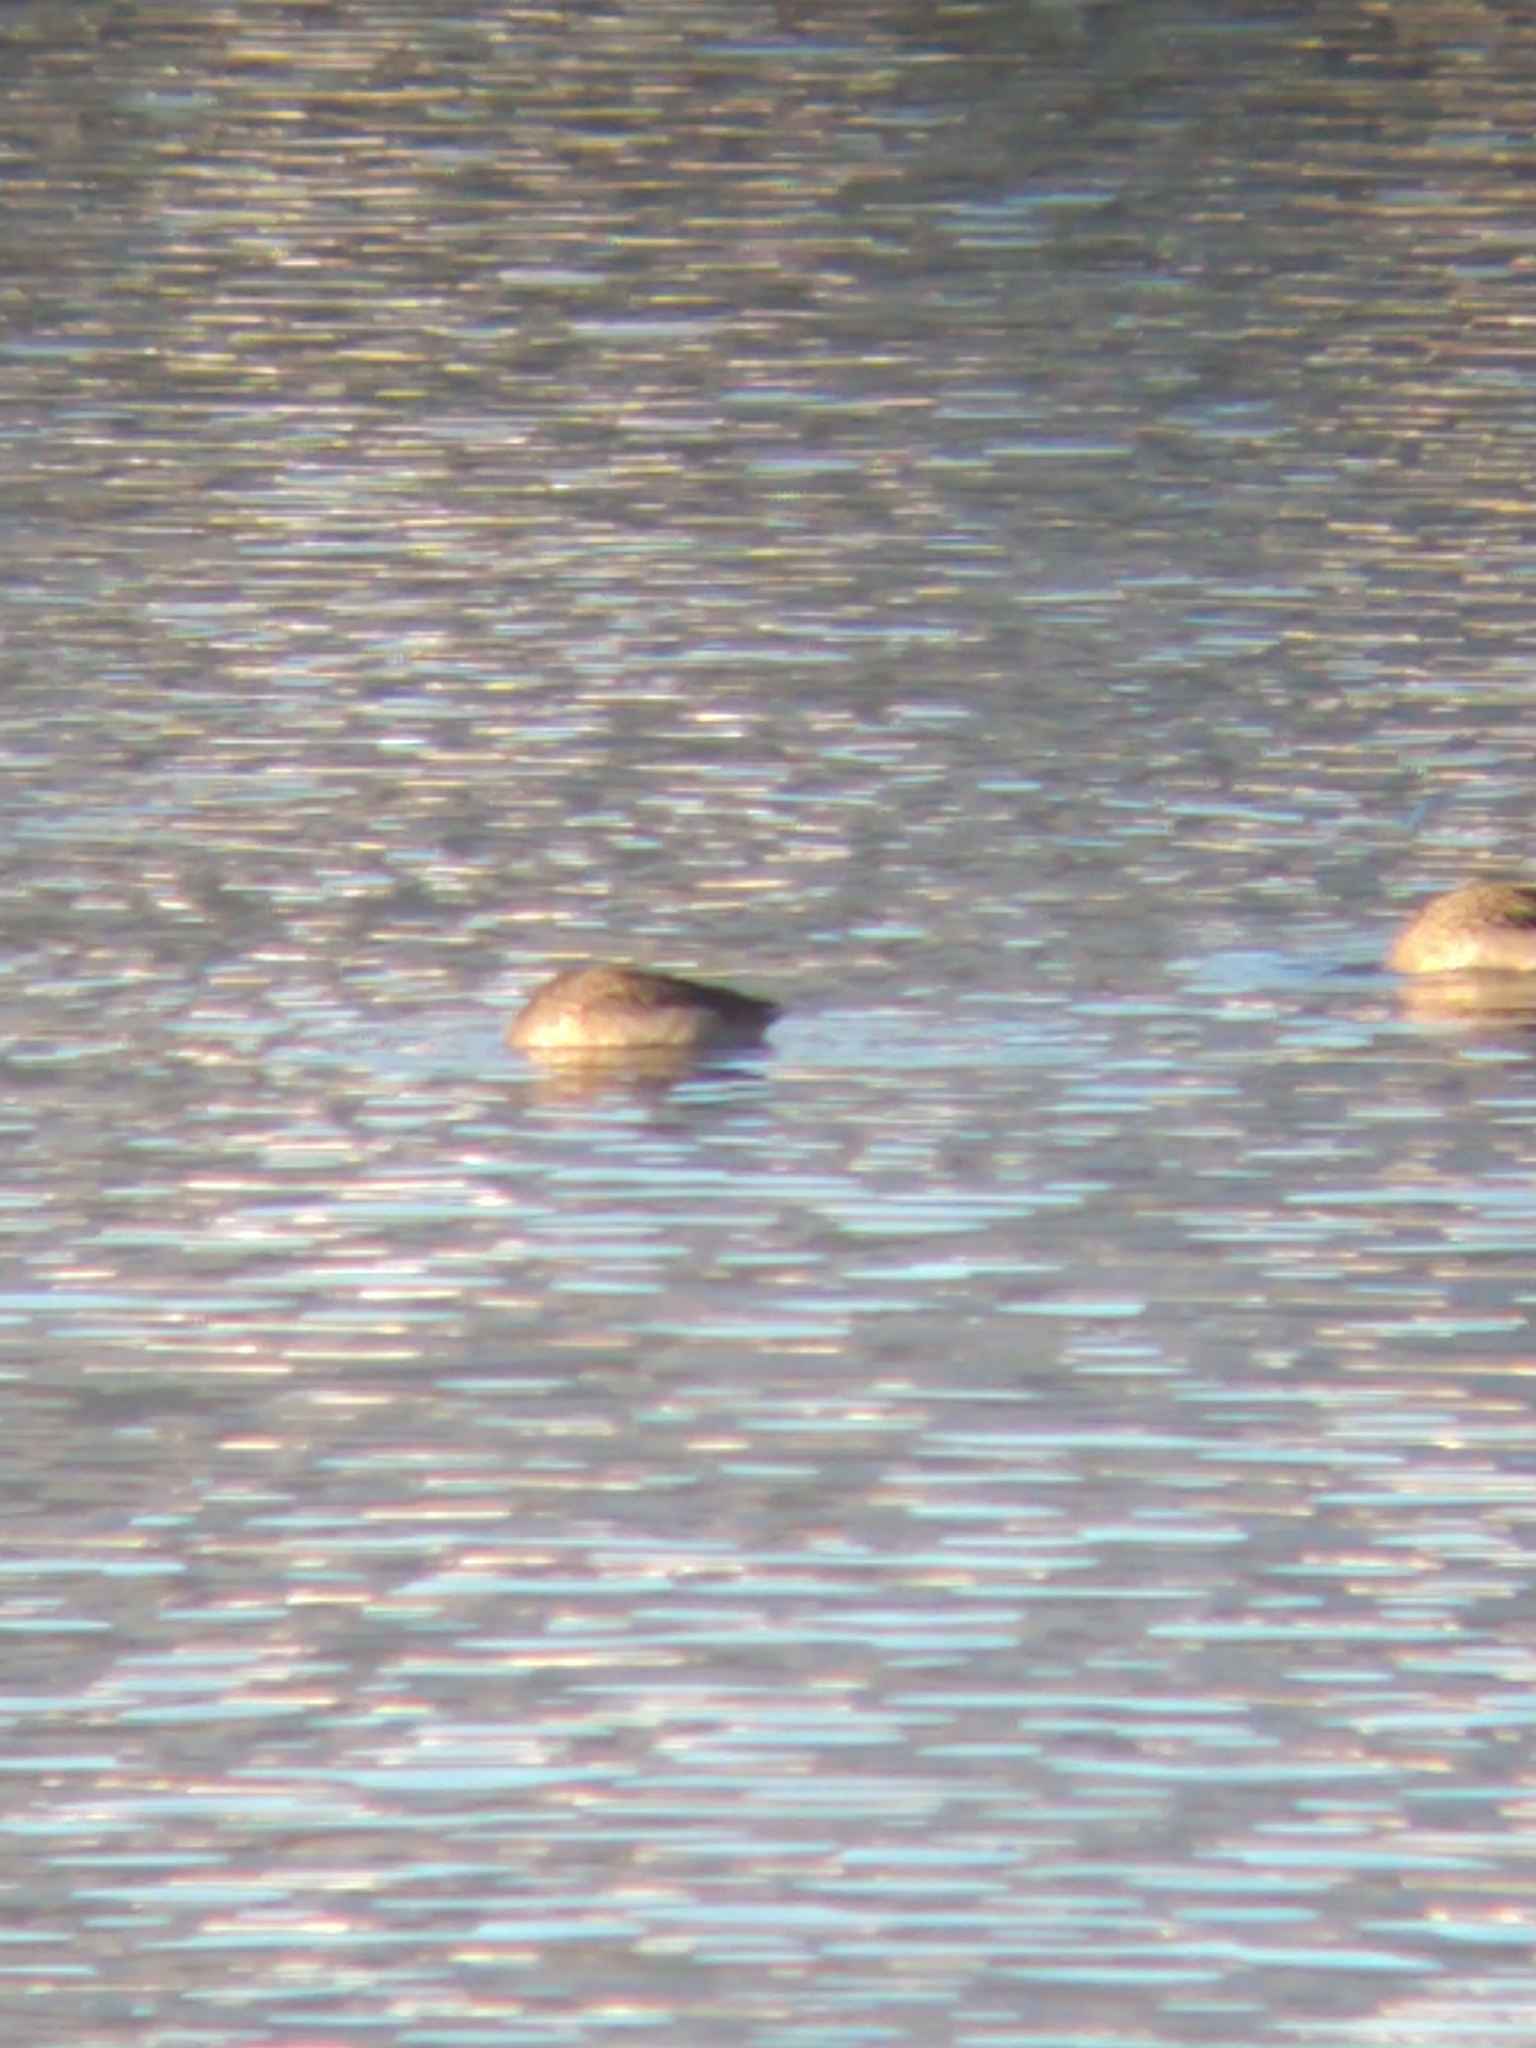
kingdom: Animalia
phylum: Chordata
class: Aves
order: Anseriformes
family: Anatidae
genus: Anas
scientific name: Anas flavirostris
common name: Yellow-billed teal
